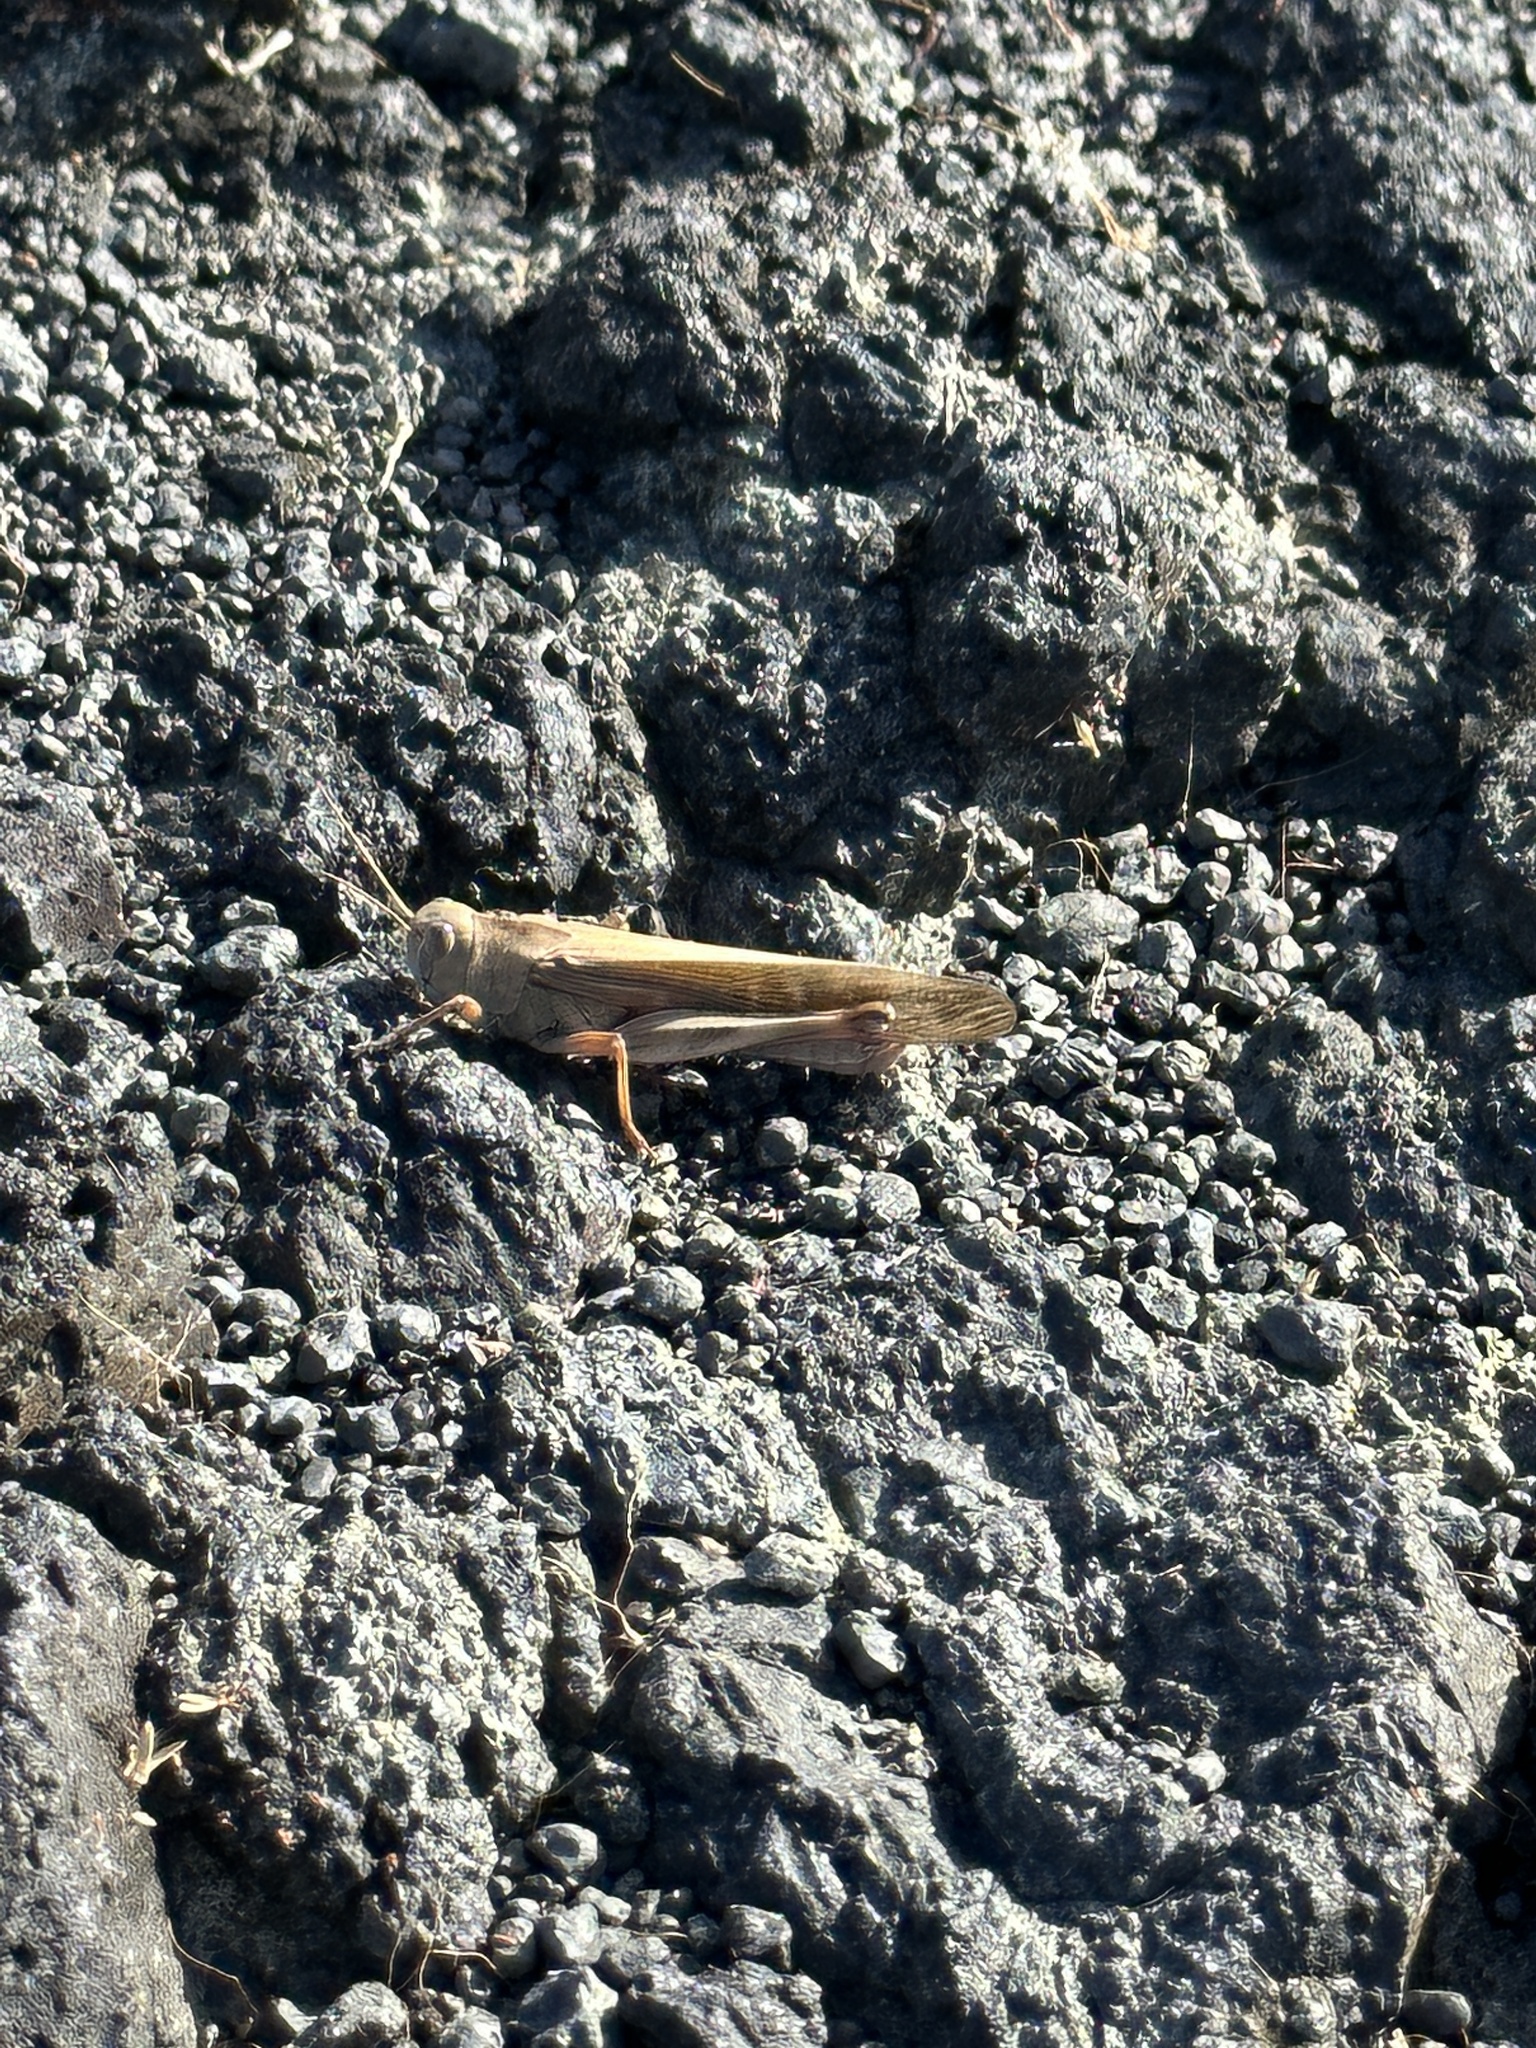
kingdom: Animalia
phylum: Arthropoda
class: Insecta
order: Orthoptera
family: Acrididae
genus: Locusta
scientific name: Locusta migratoria
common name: Migratory locust
